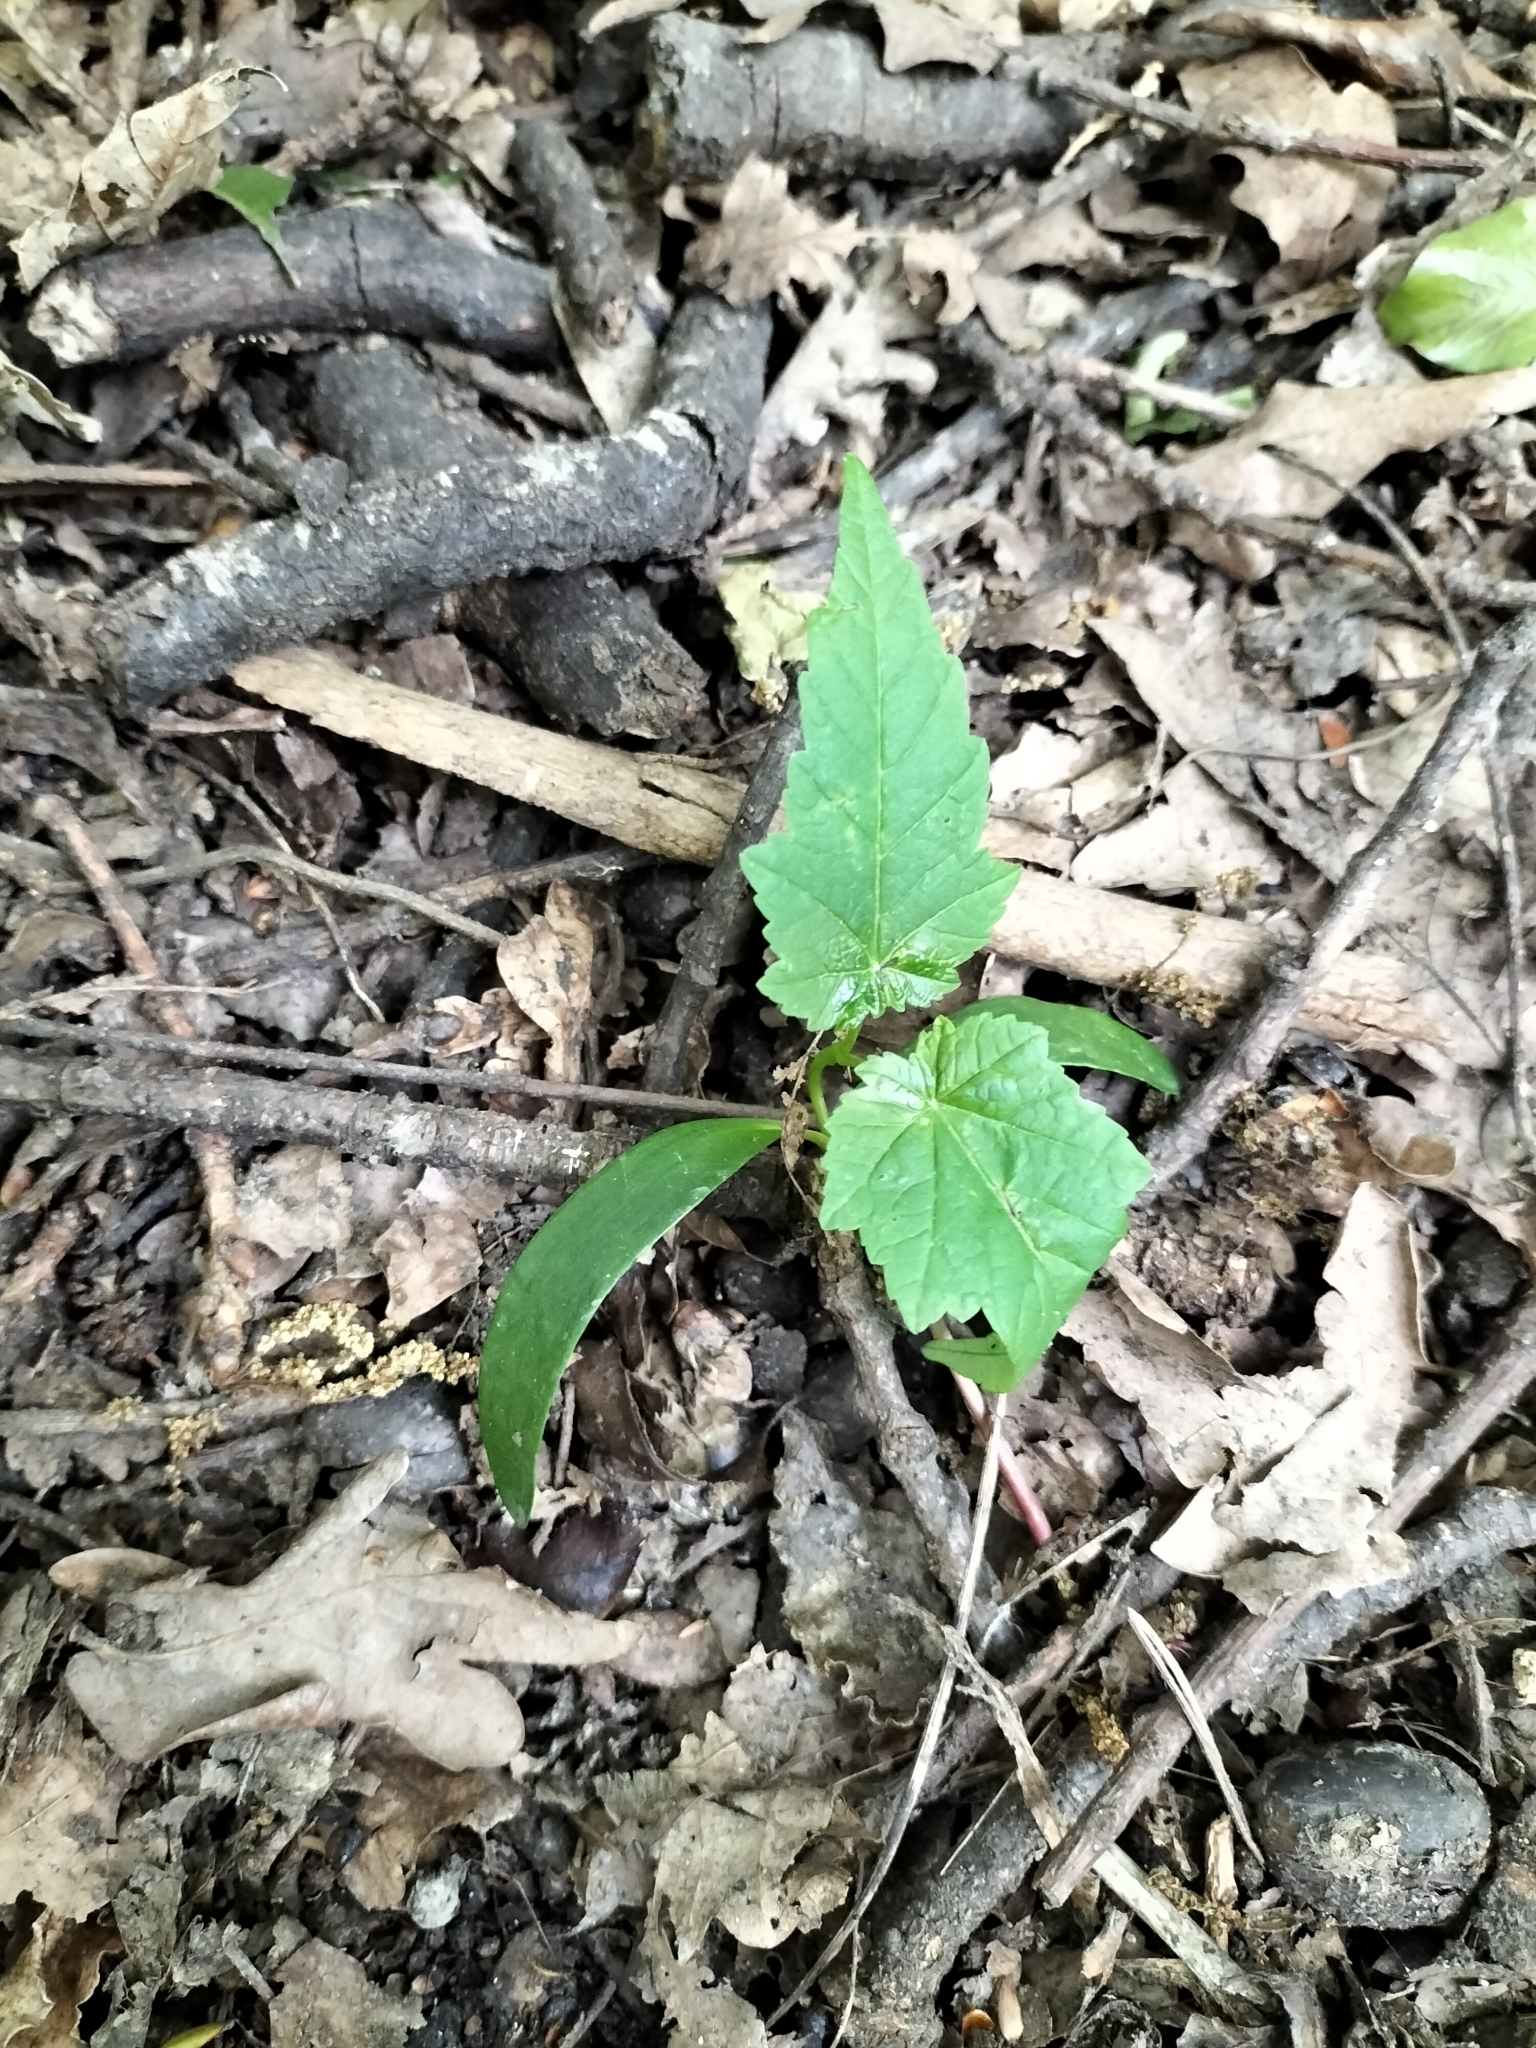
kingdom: Plantae
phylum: Tracheophyta
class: Magnoliopsida
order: Sapindales
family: Sapindaceae
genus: Acer
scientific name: Acer pseudoplatanus
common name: Sycamore
